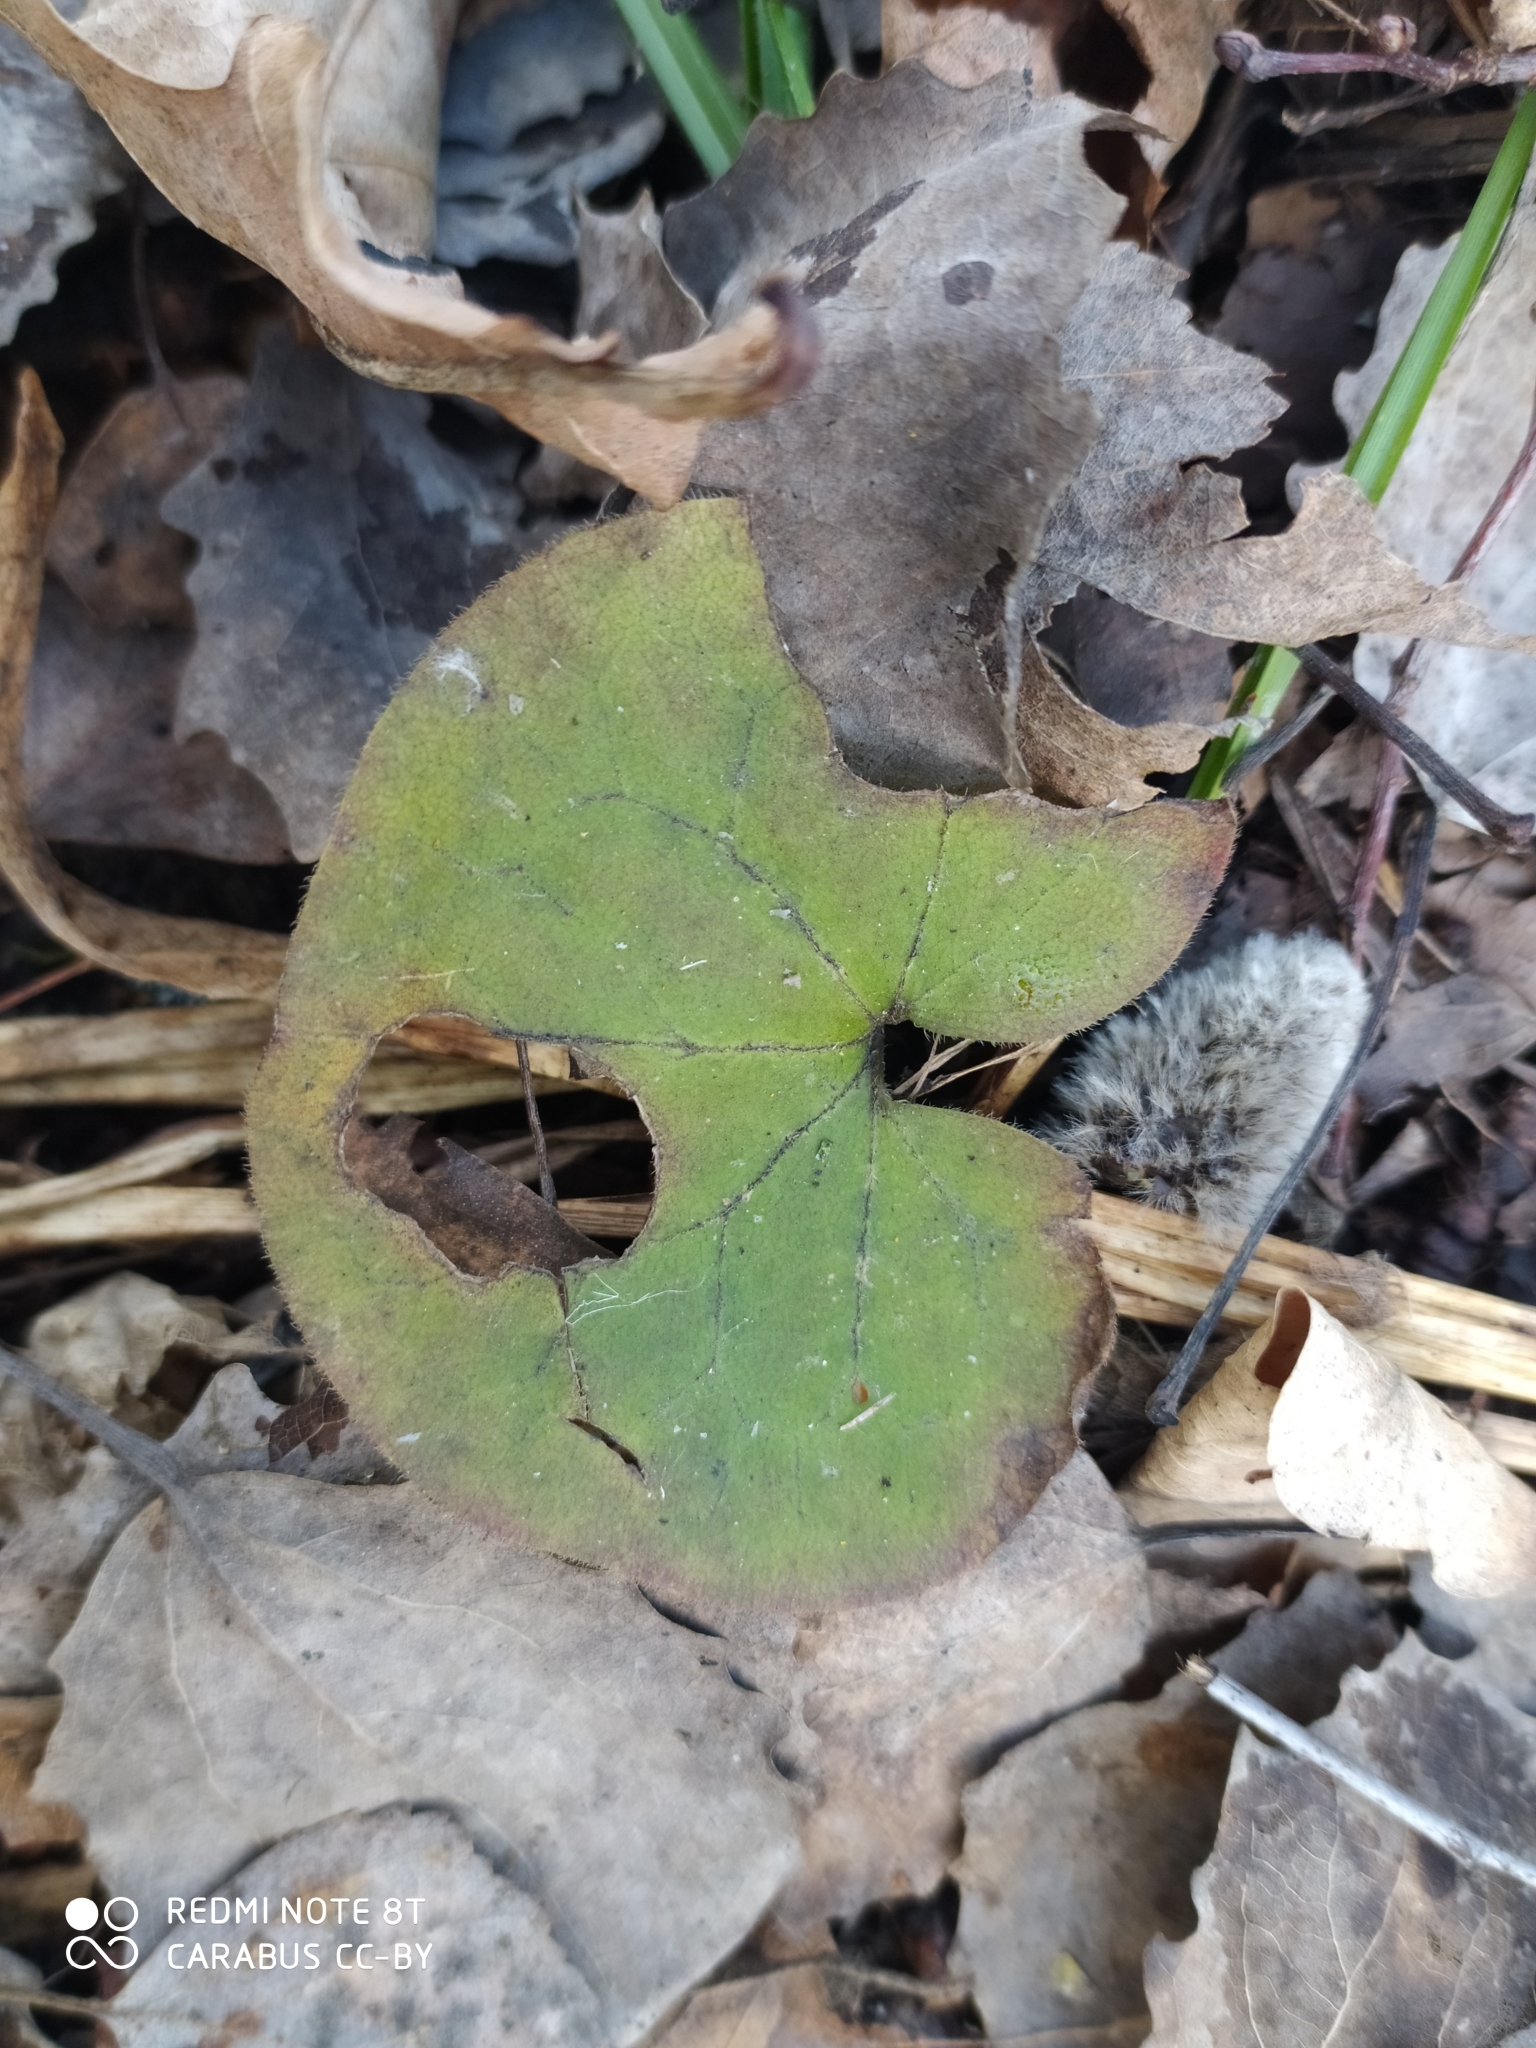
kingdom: Plantae
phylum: Tracheophyta
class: Magnoliopsida
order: Piperales
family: Aristolochiaceae
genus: Asarum
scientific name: Asarum europaeum
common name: Asarabacca
